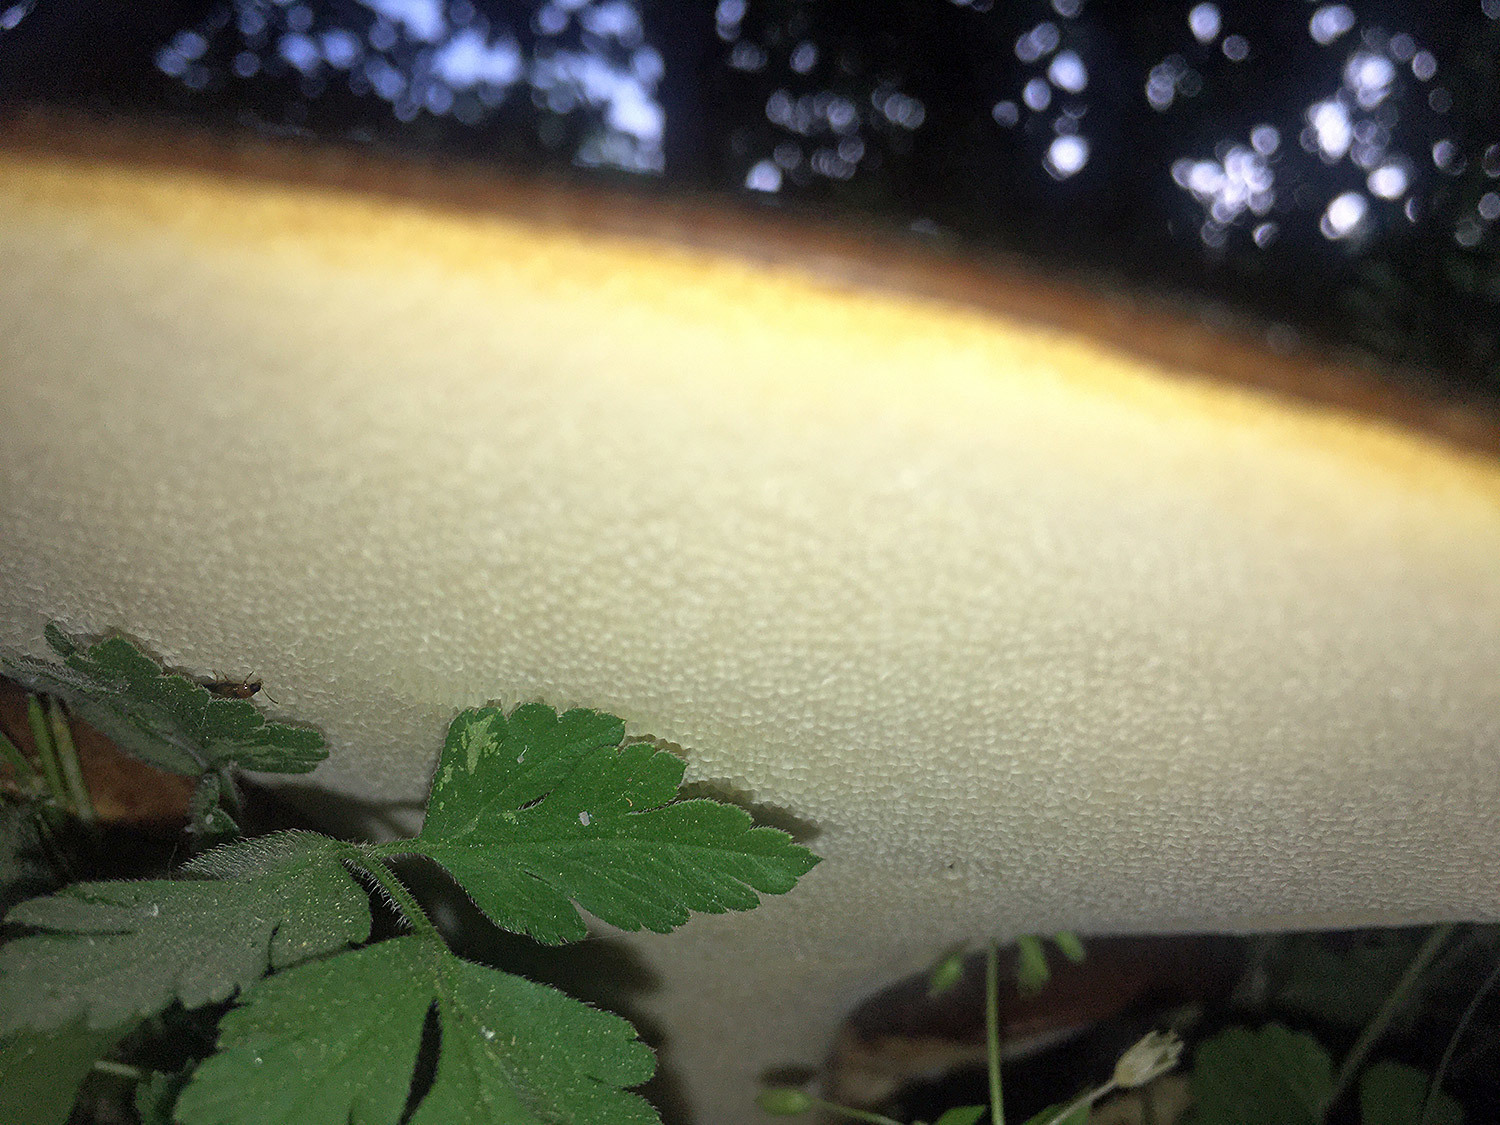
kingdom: Fungi
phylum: Basidiomycota
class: Agaricomycetes
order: Polyporales
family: Polyporaceae
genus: Cerioporus
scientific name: Cerioporus squamosus
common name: Dryad's saddle
